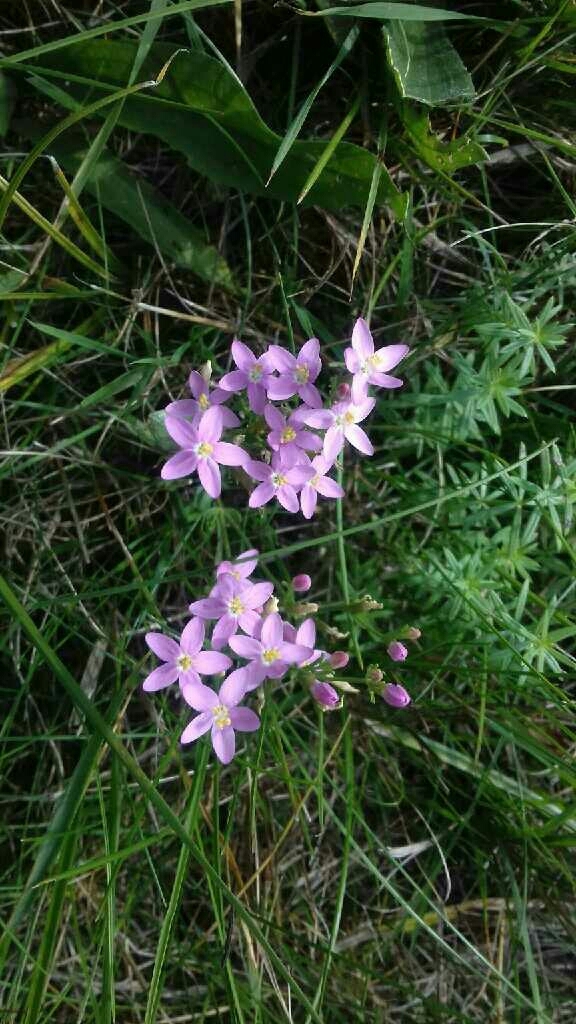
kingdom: Plantae
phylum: Tracheophyta
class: Magnoliopsida
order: Gentianales
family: Gentianaceae
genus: Centaurium
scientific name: Centaurium erythraea
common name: Common centaury
